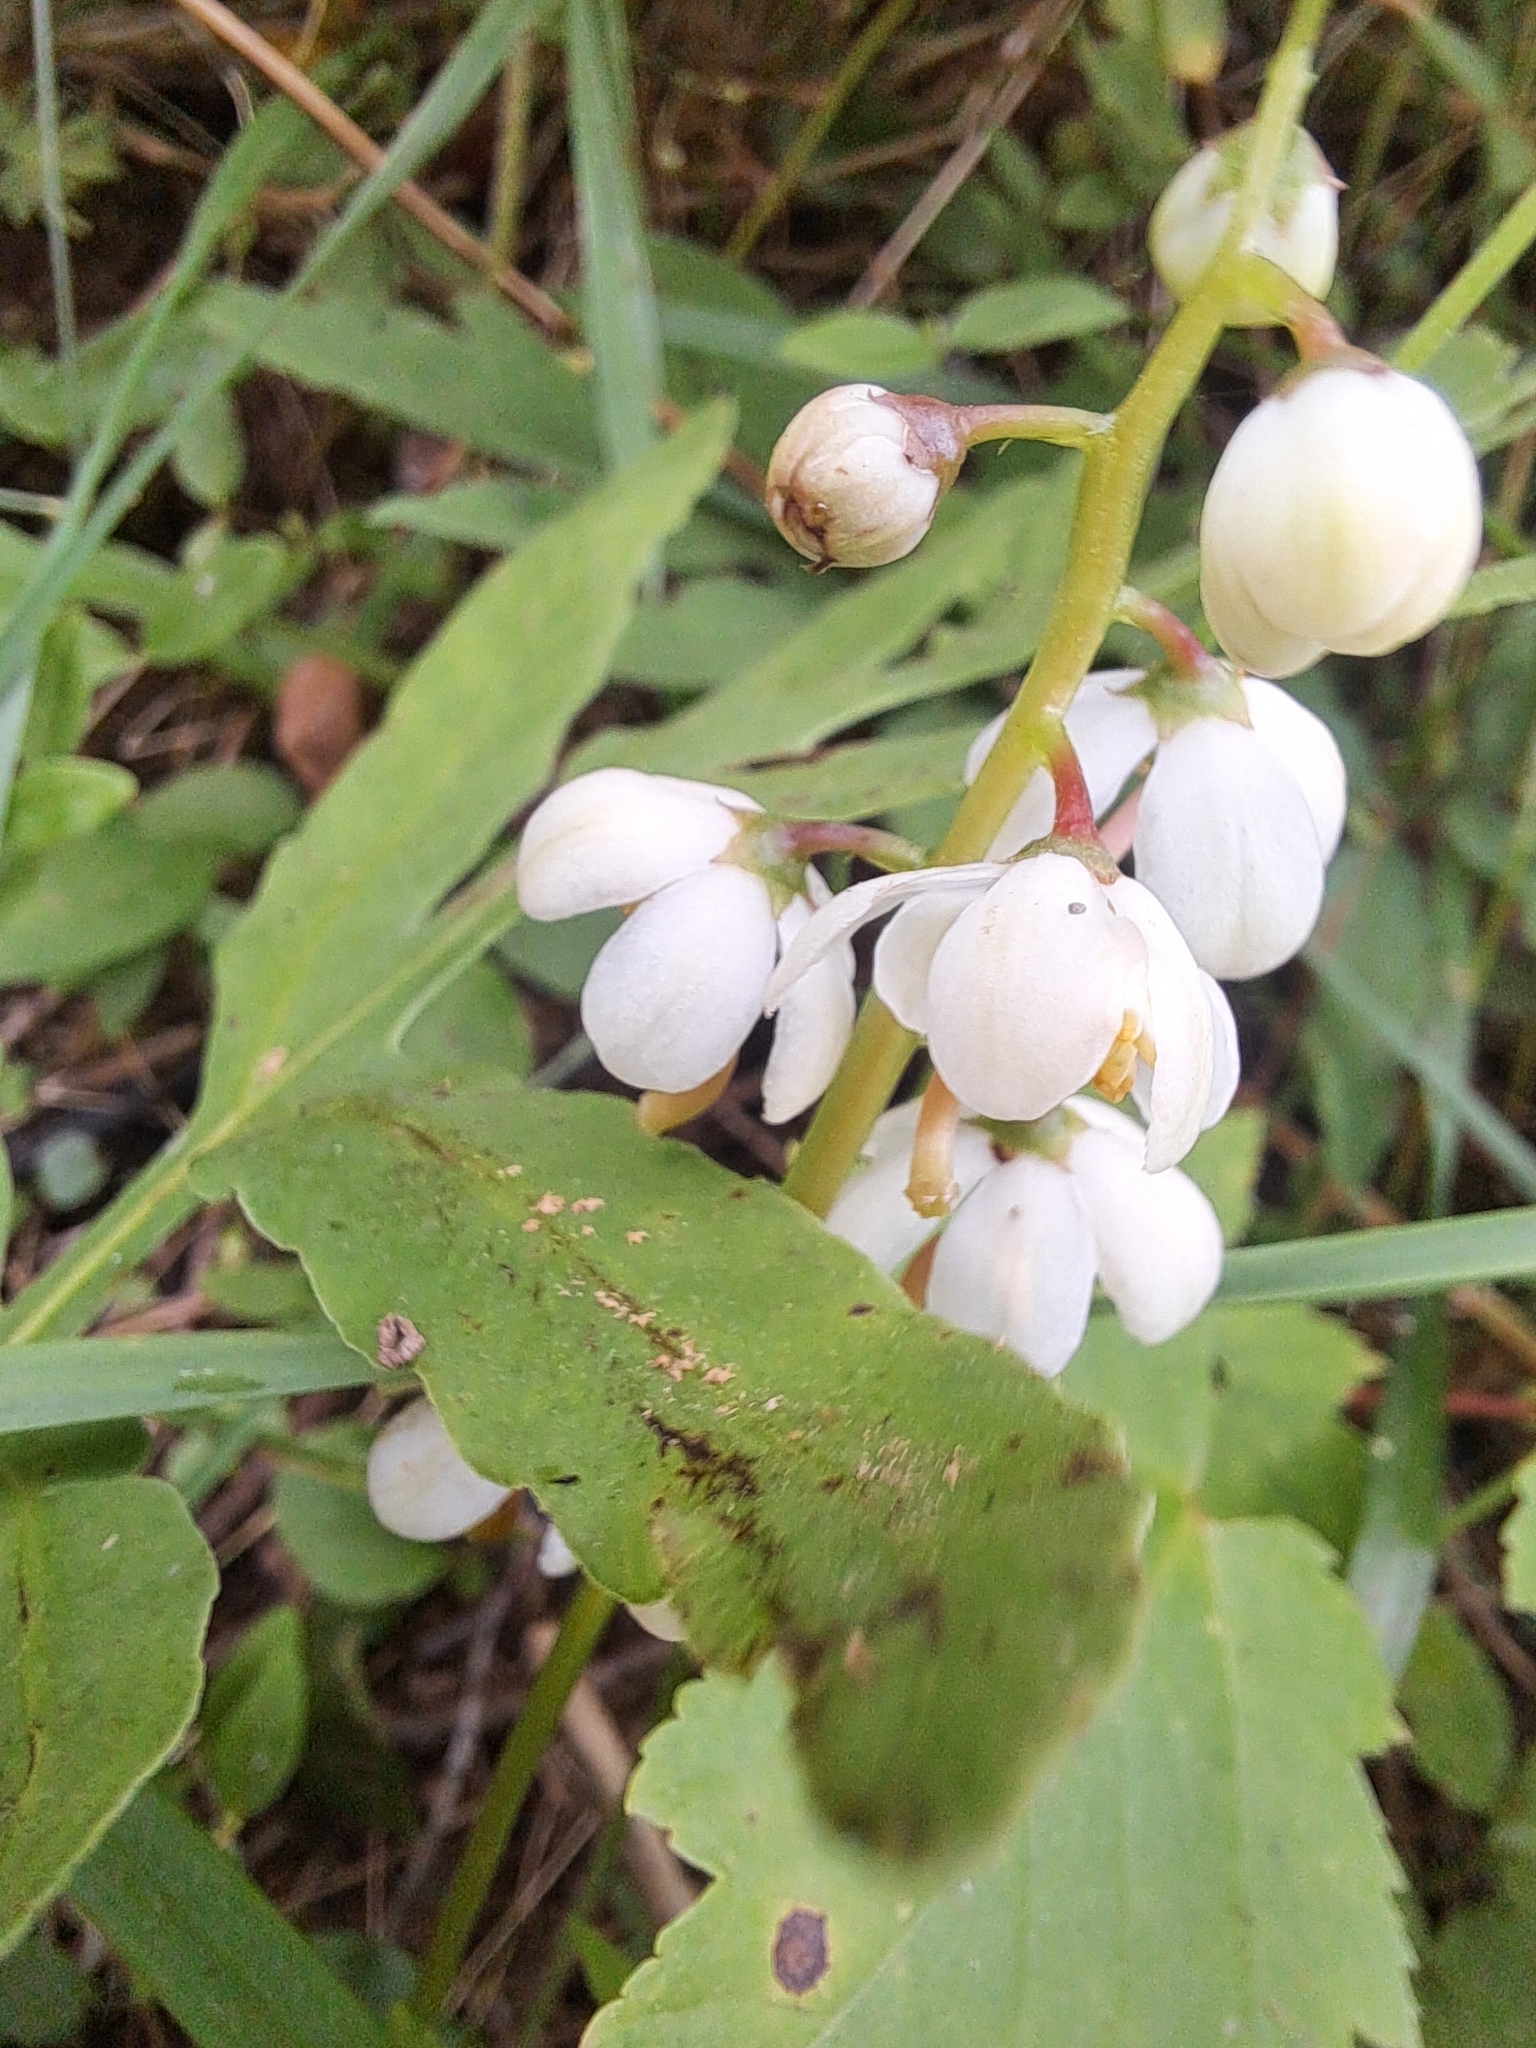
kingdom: Plantae
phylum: Tracheophyta
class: Magnoliopsida
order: Ericales
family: Ericaceae
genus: Pyrola
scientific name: Pyrola elliptica
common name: Shinleaf
